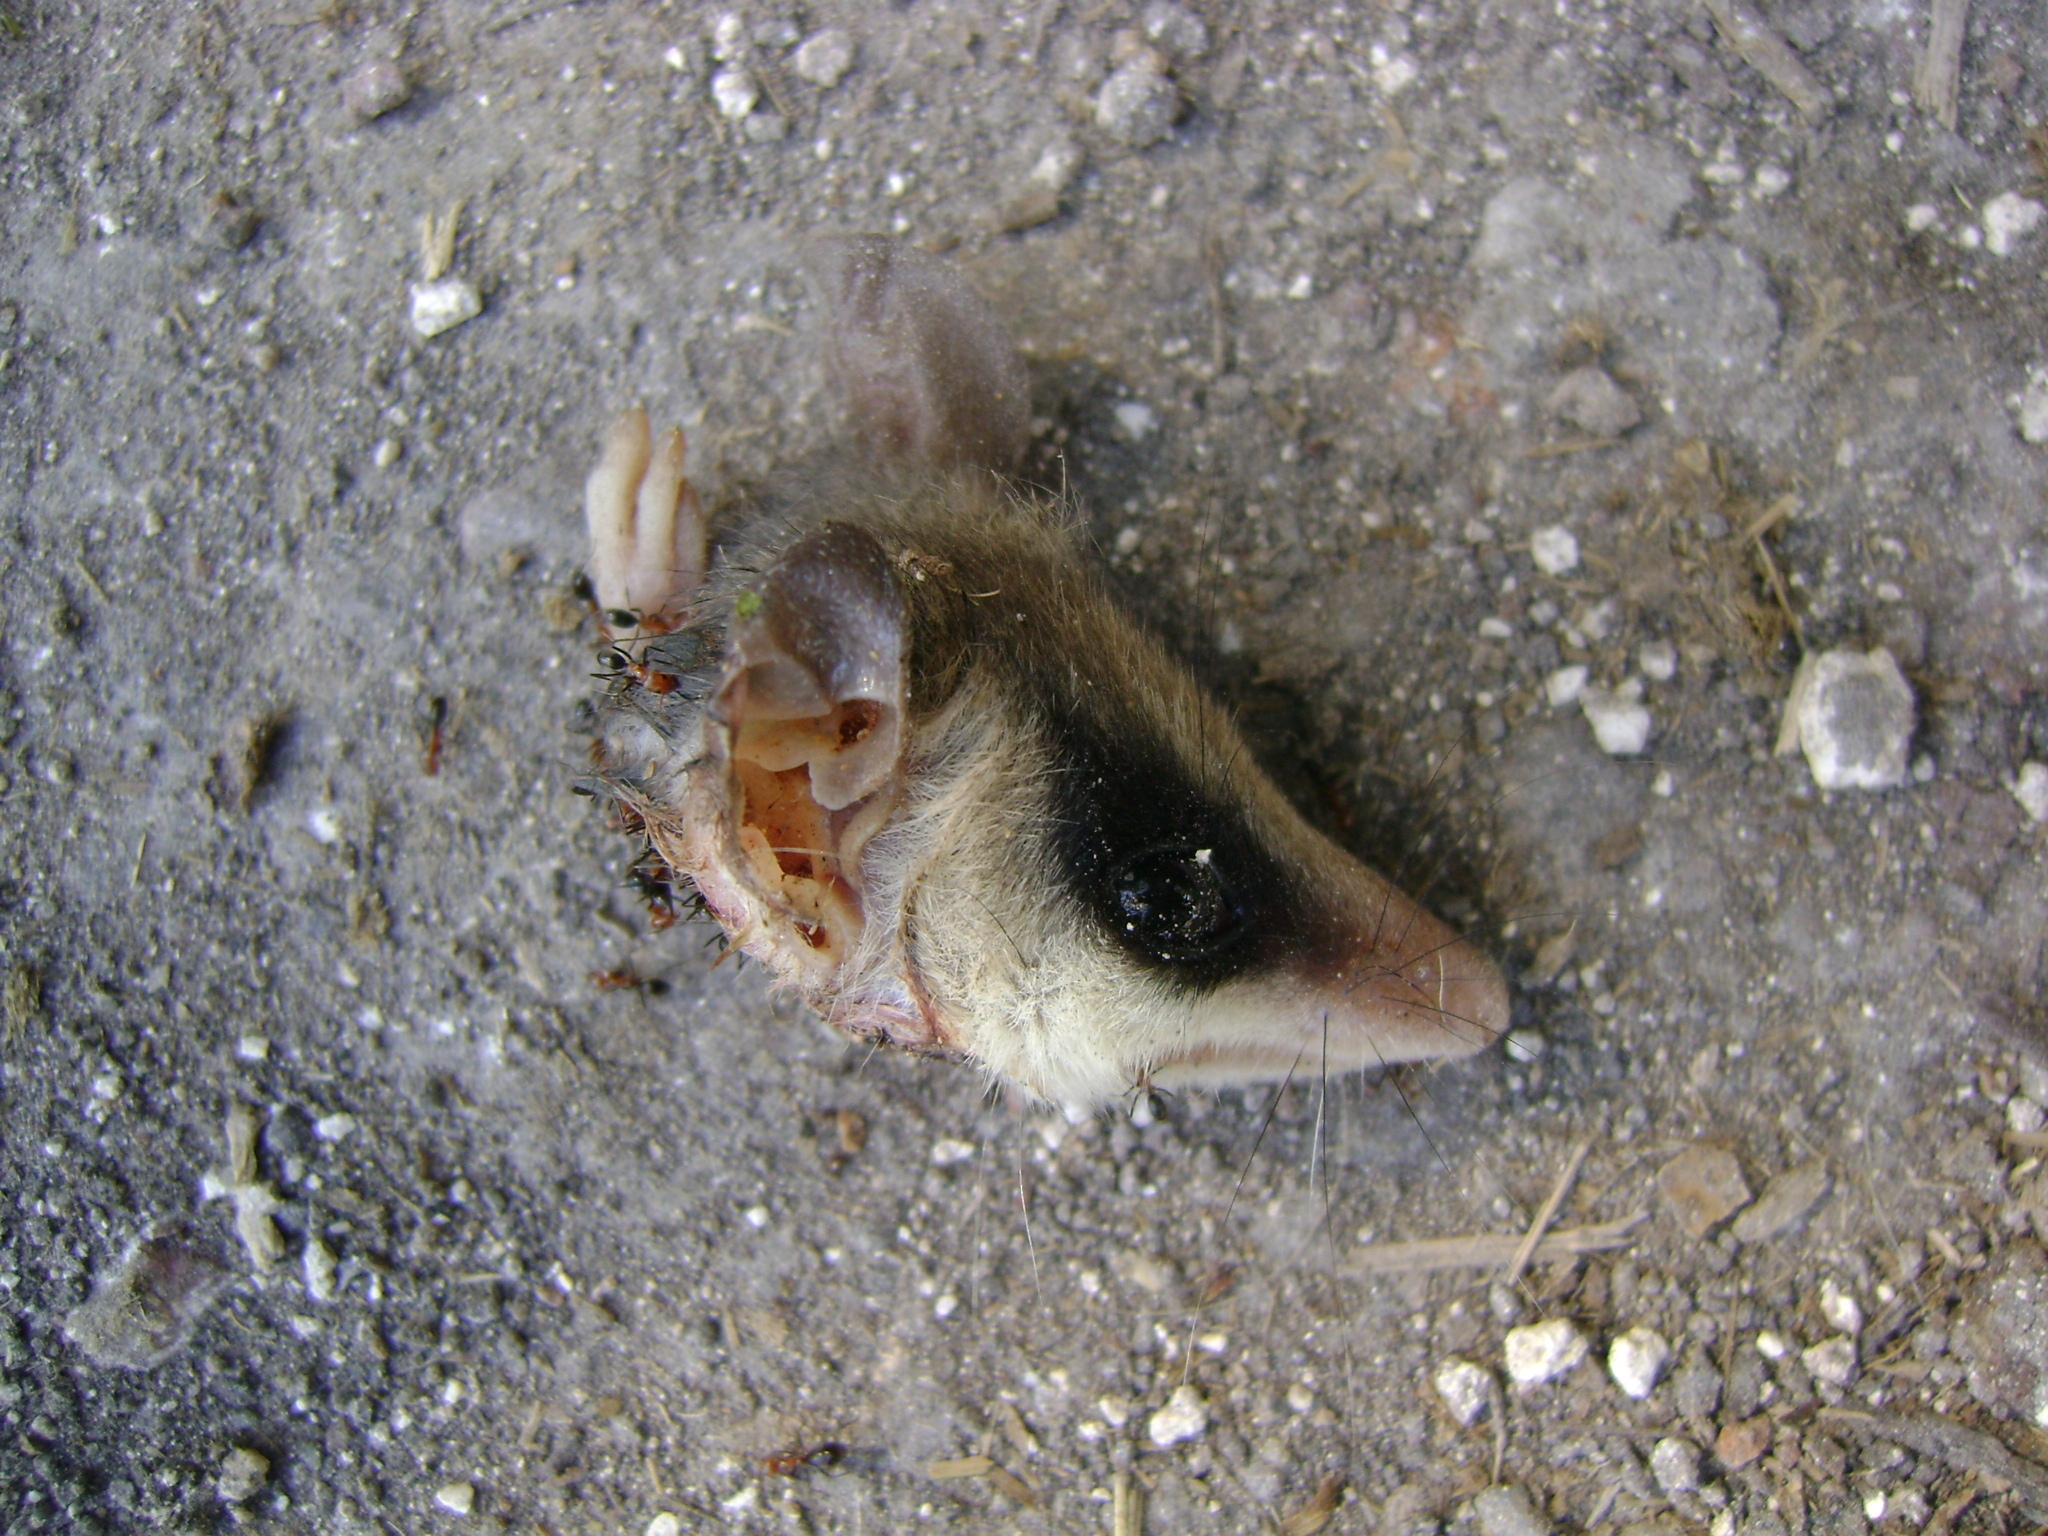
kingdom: Animalia
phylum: Chordata
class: Mammalia
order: Didelphimorphia
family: Didelphidae
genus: Marmosa
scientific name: Marmosa mexicana
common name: Mexican mouse opossum
